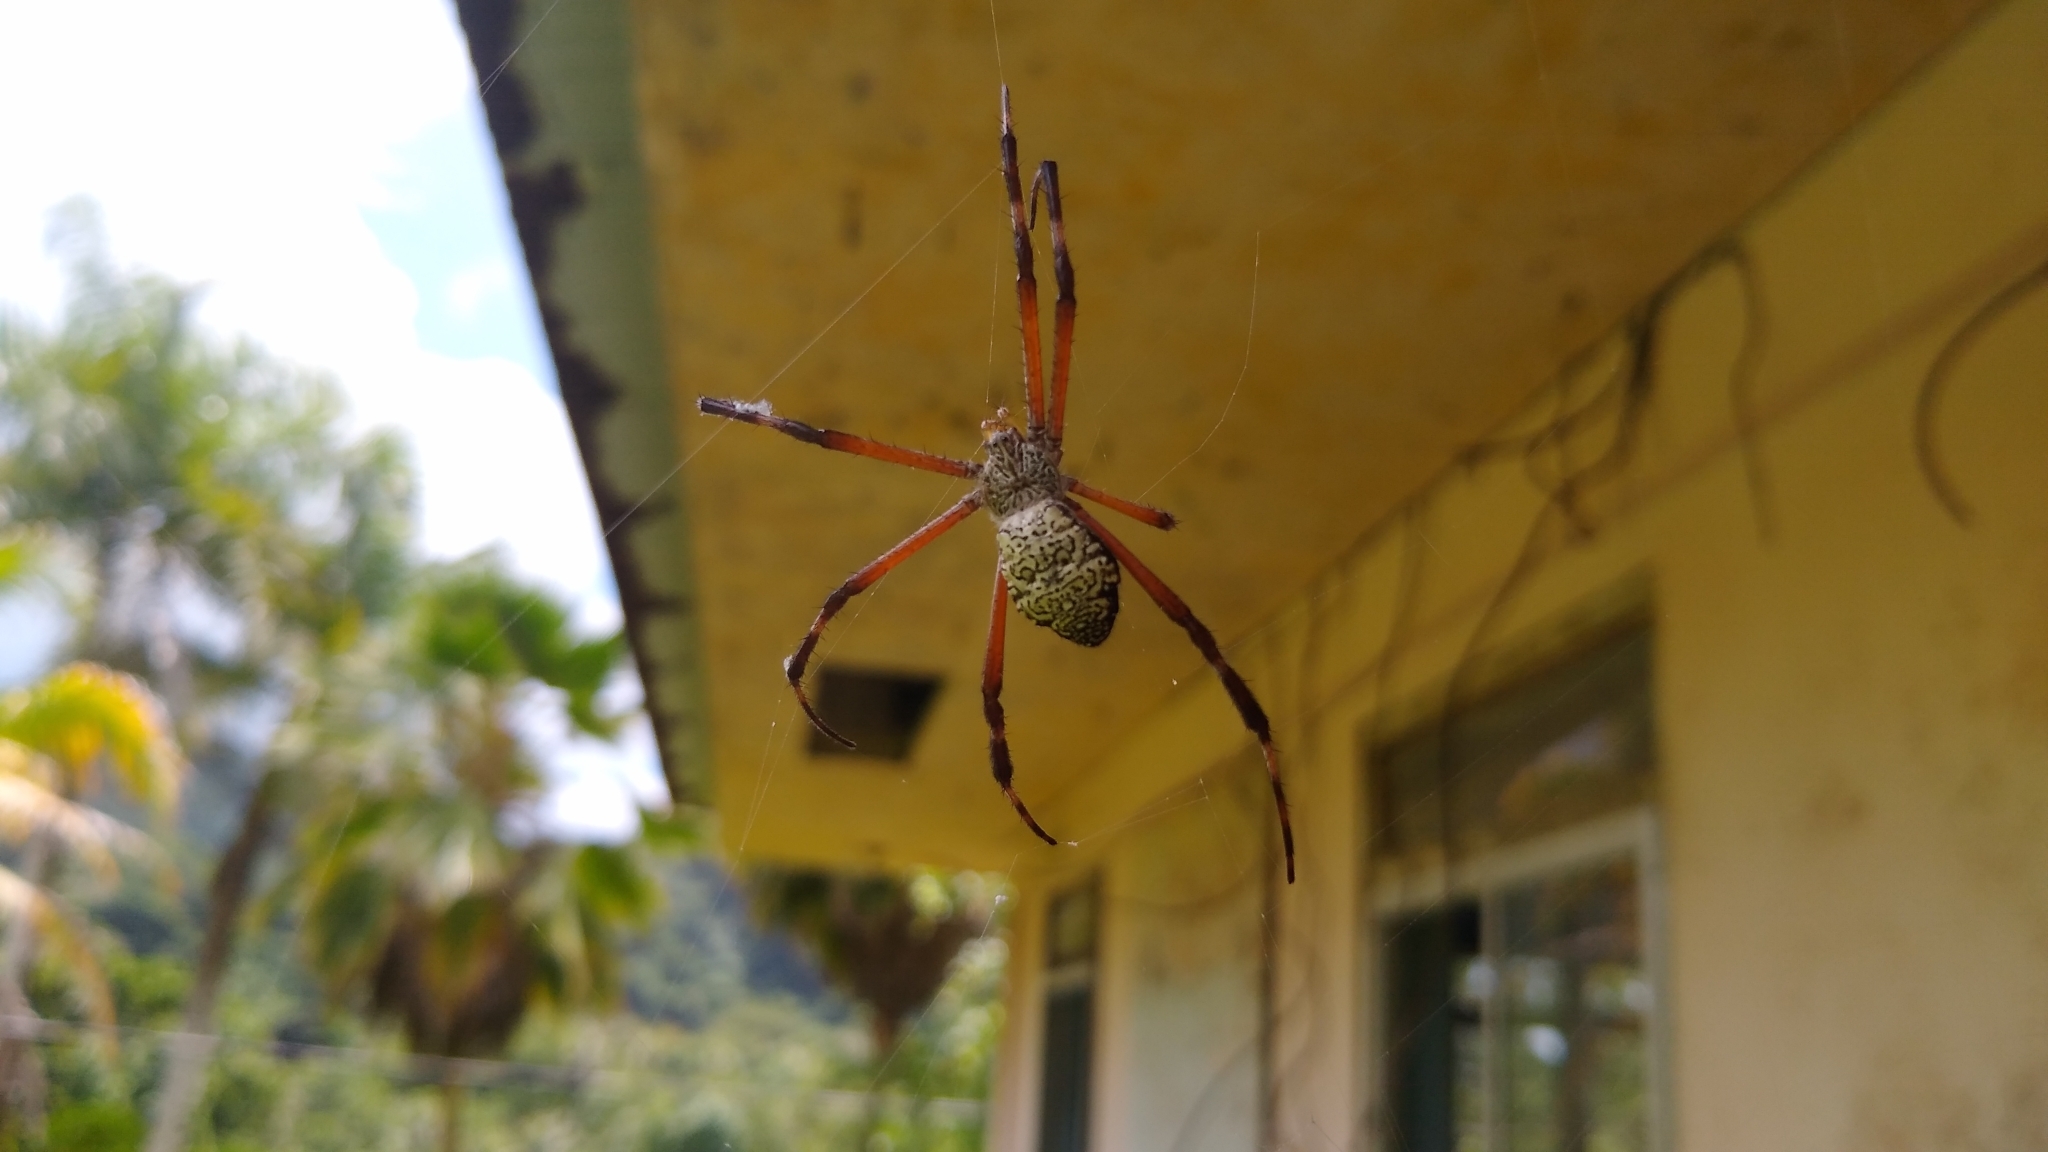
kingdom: Animalia
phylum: Arthropoda
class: Arachnida
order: Araneae
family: Araneidae
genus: Argiope
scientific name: Argiope appensa
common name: Garden spider
